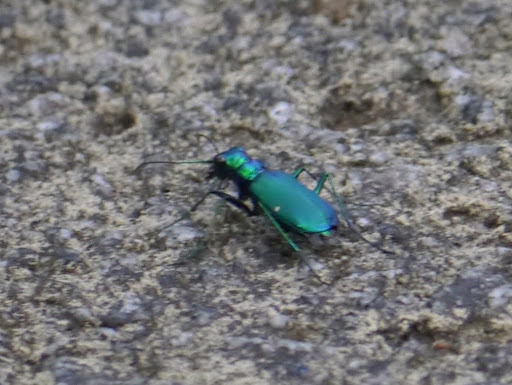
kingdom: Animalia
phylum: Arthropoda
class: Insecta
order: Coleoptera
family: Carabidae
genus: Cicindela
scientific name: Cicindela sexguttata
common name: Six-spotted tiger beetle
